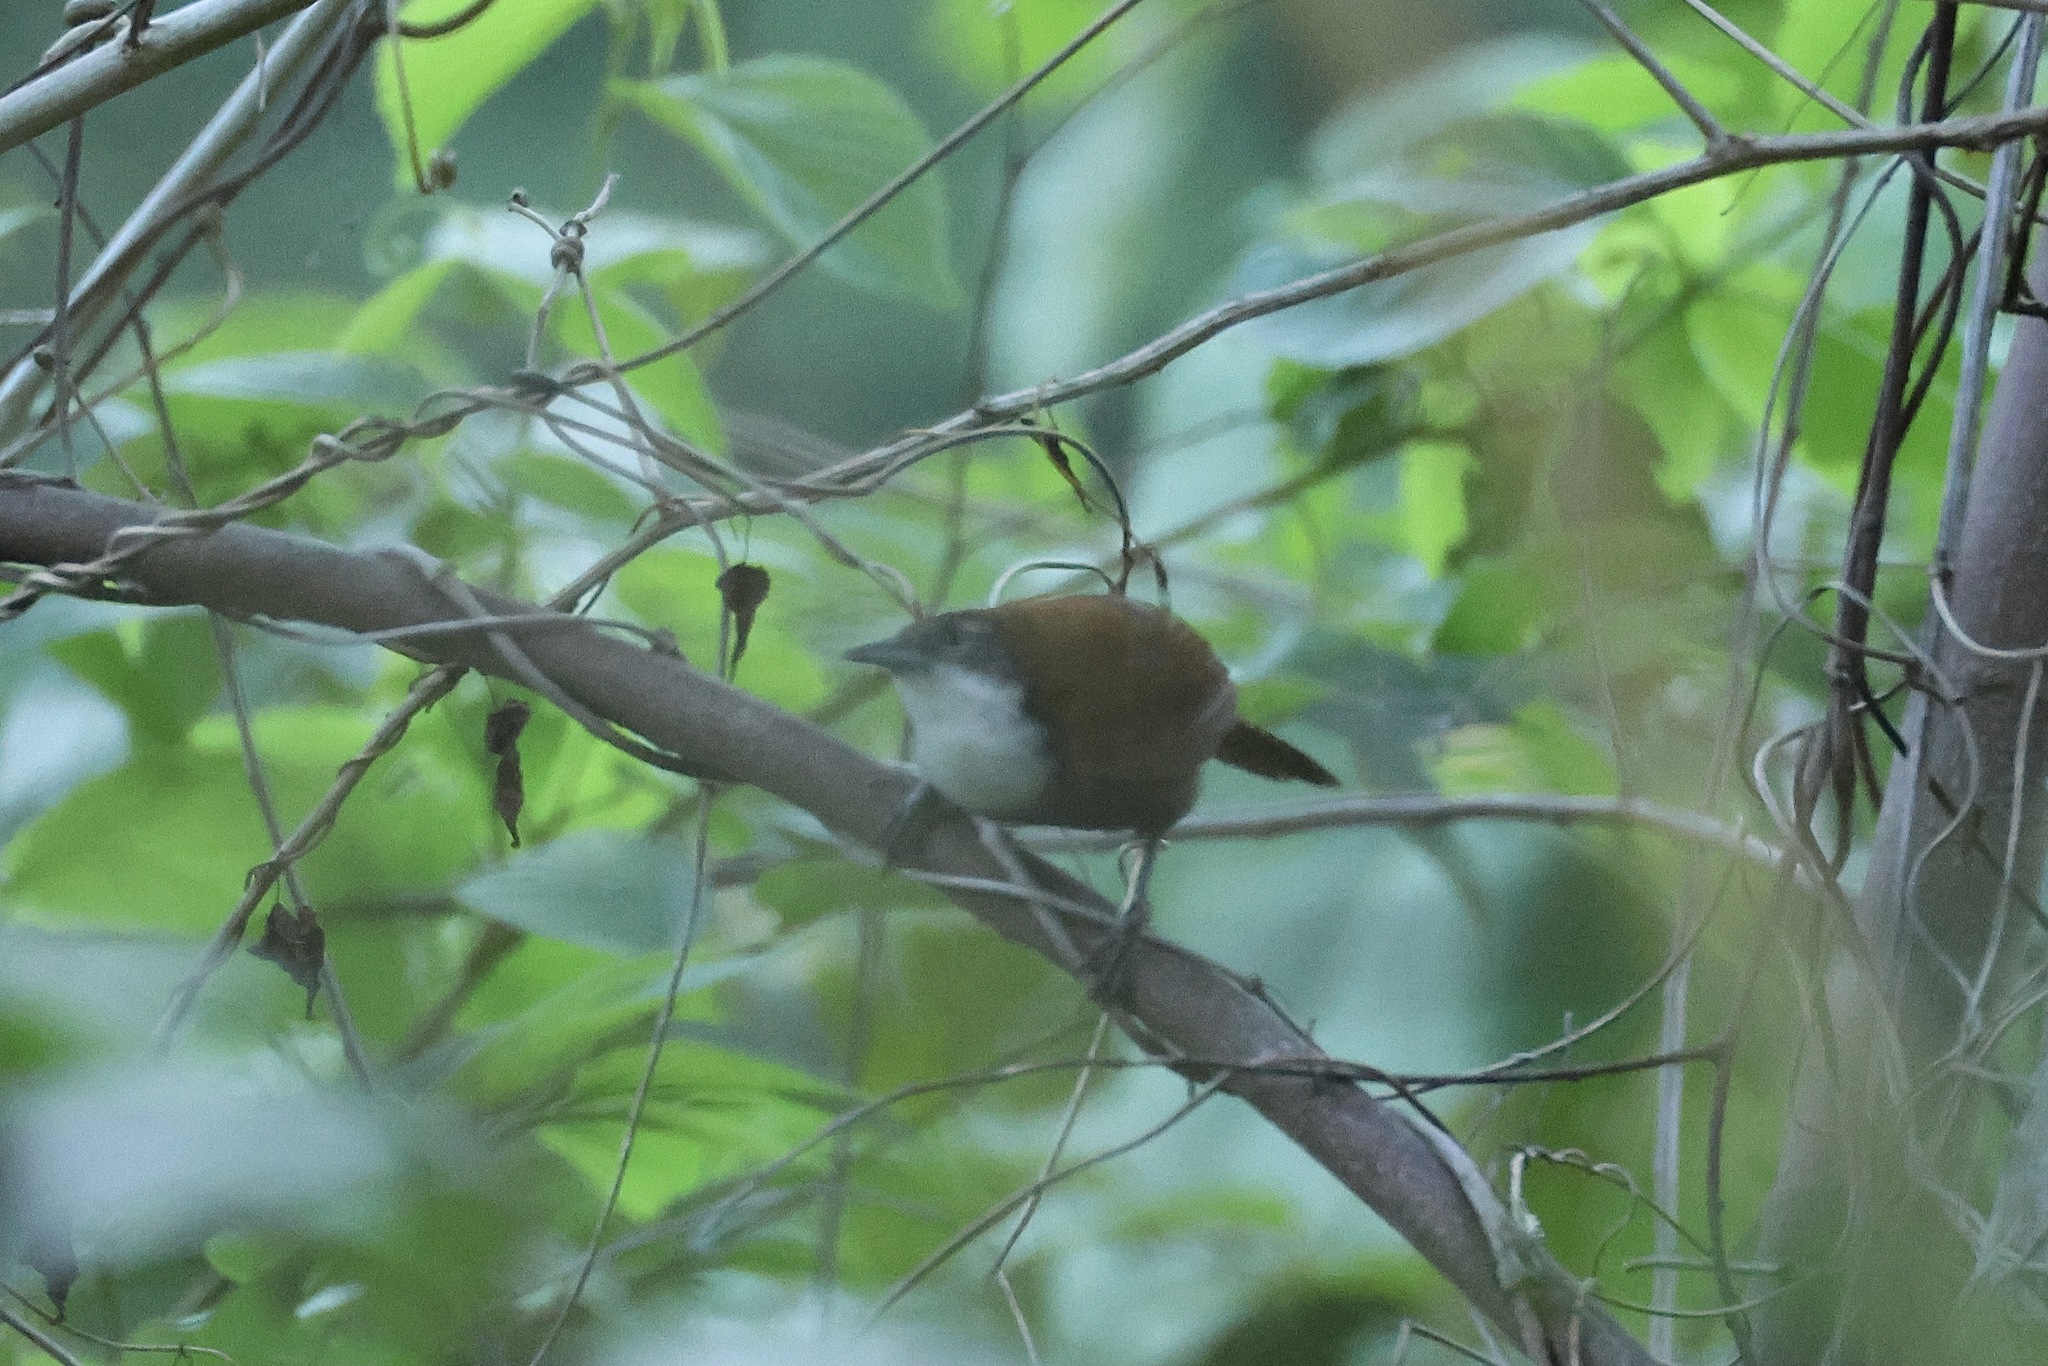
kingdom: Animalia
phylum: Chordata
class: Aves
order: Passeriformes
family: Troglodytidae
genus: Pheugopedius
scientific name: Pheugopedius fasciatoventris
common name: Black-bellied wren
